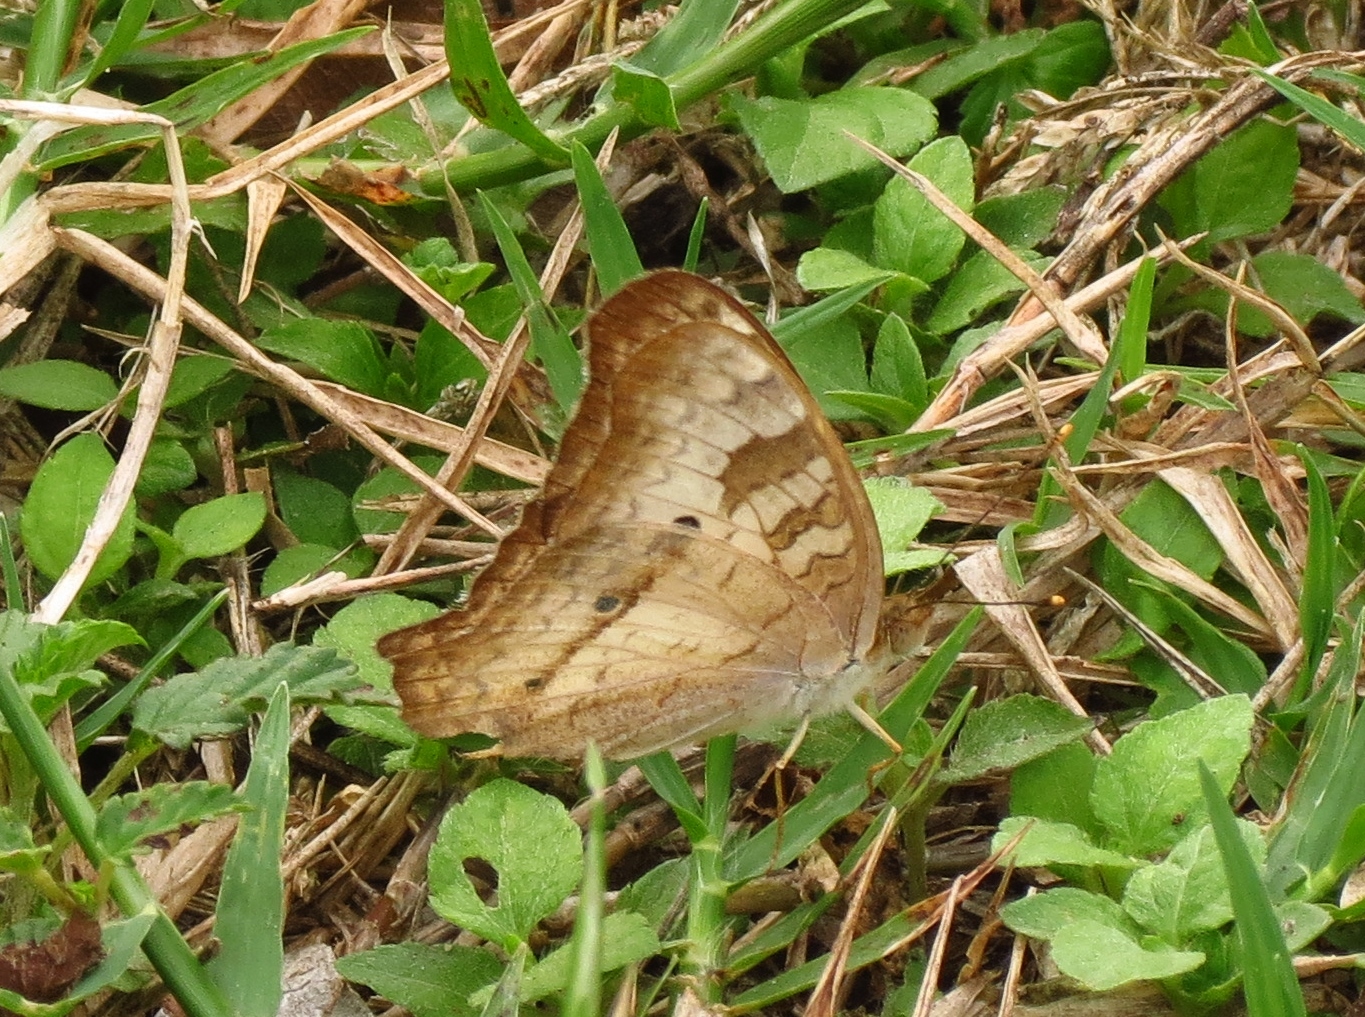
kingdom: Animalia
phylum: Arthropoda
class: Insecta
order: Lepidoptera
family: Nymphalidae
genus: Anartia
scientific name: Anartia jatrophae
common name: White peacock
